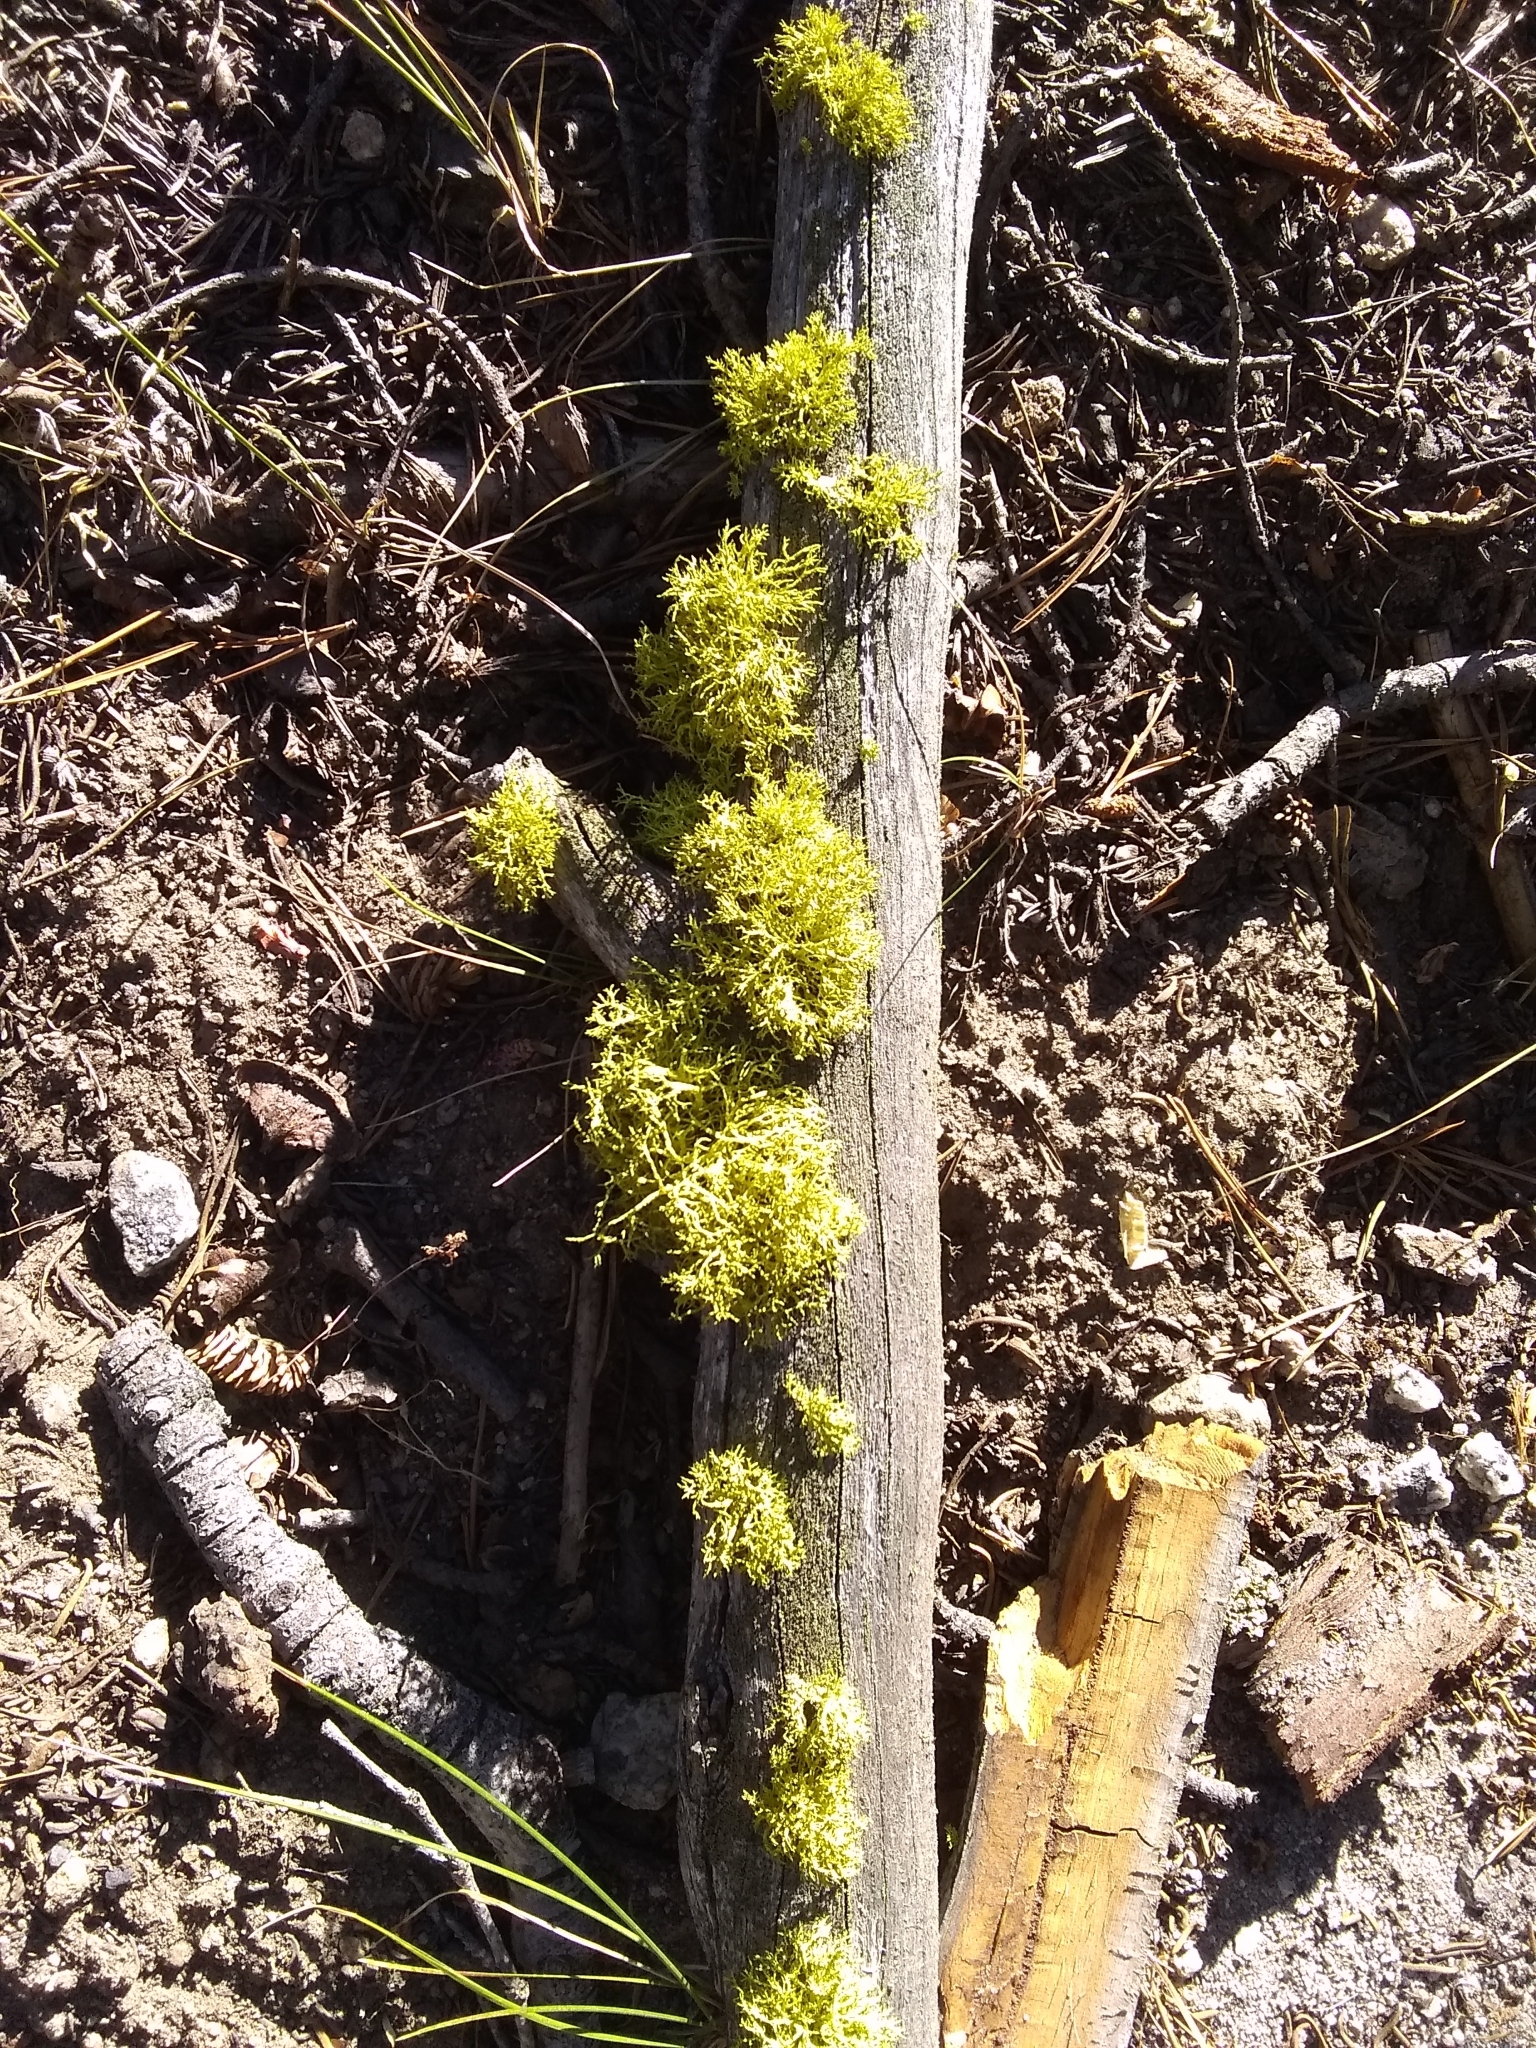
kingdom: Fungi
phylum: Ascomycota
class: Lecanoromycetes
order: Lecanorales
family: Parmeliaceae
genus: Letharia
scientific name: Letharia vulpina
